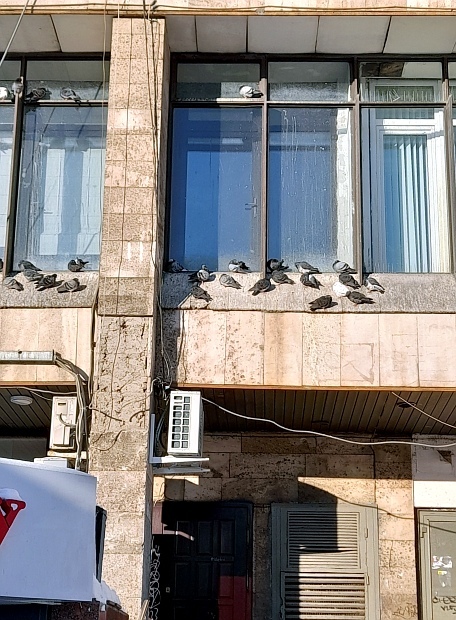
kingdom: Animalia
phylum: Chordata
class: Aves
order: Columbiformes
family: Columbidae
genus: Columba
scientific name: Columba livia
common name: Rock pigeon
